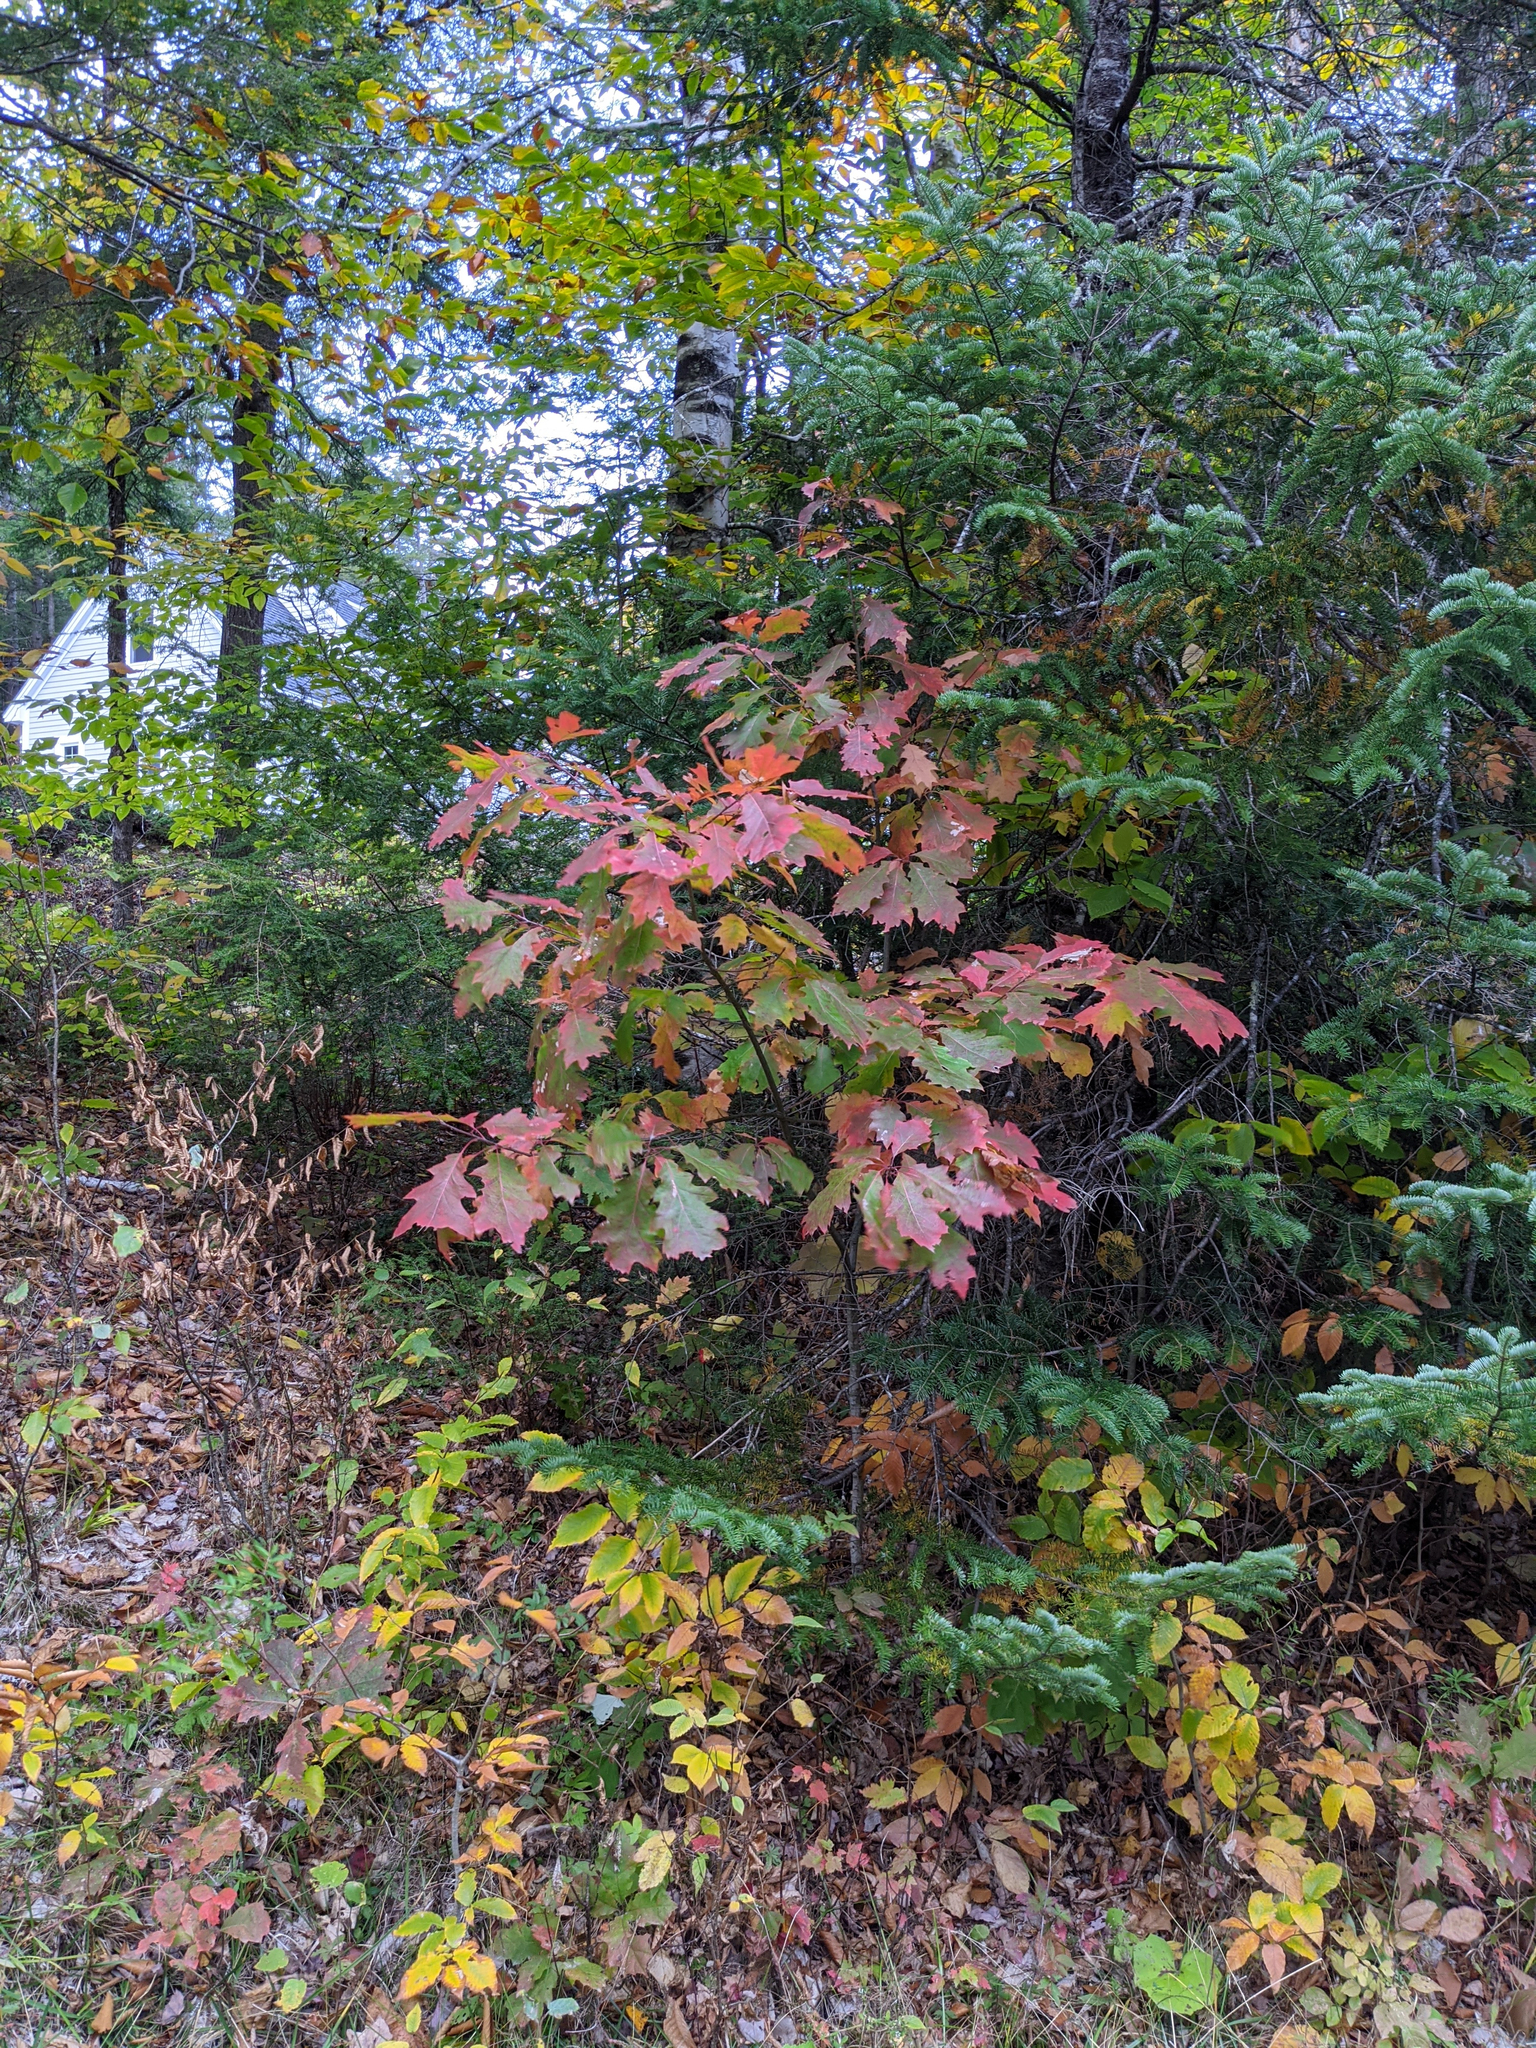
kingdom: Plantae
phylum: Tracheophyta
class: Magnoliopsida
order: Fagales
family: Fagaceae
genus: Quercus
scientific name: Quercus rubra
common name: Red oak
